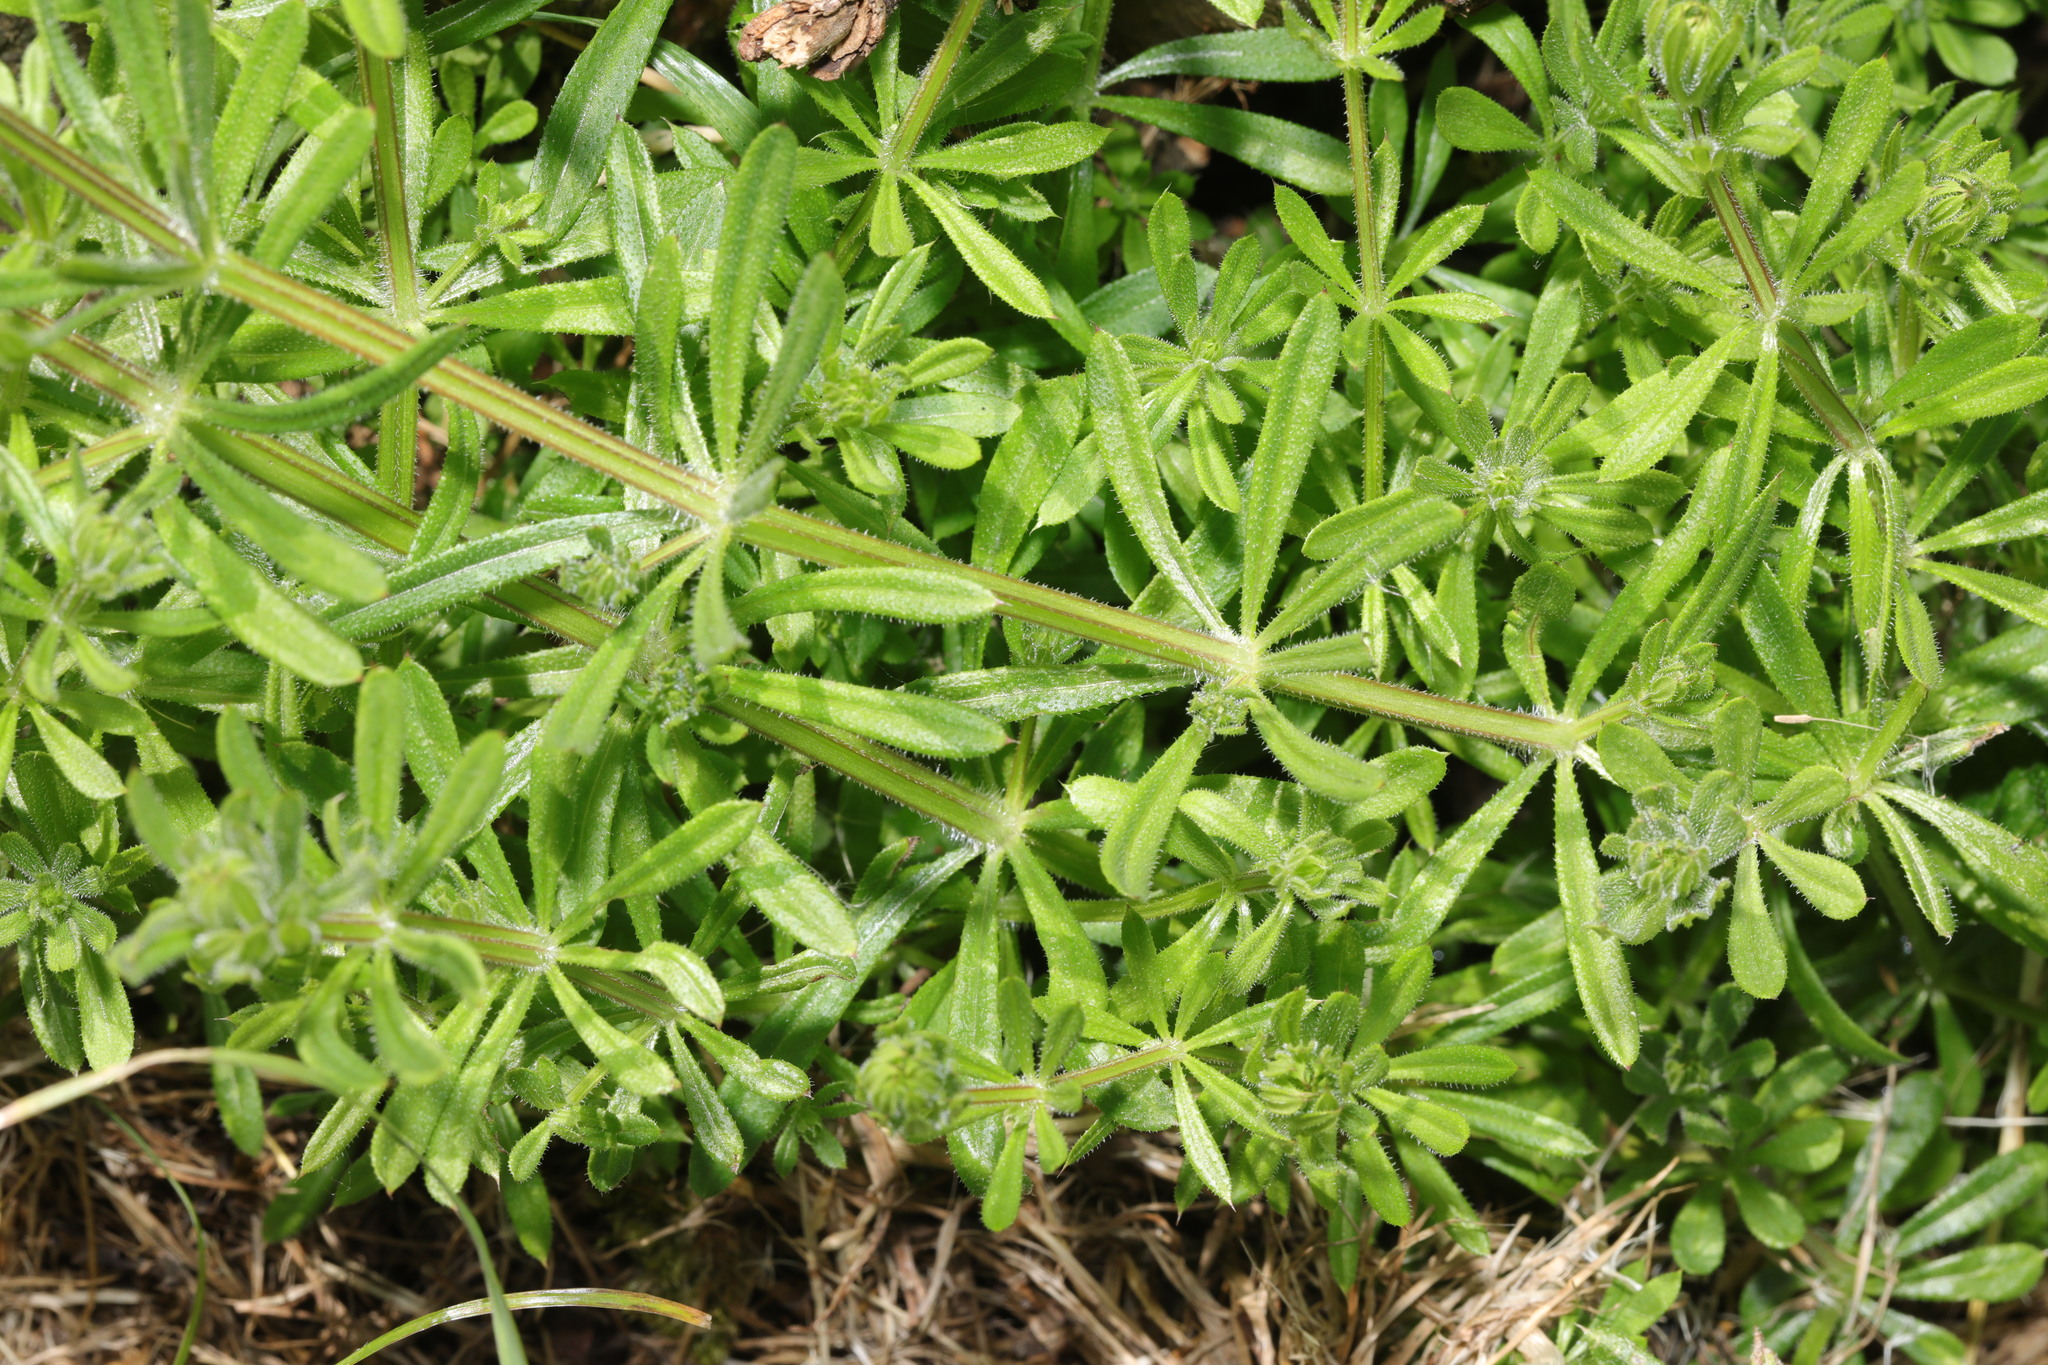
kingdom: Plantae
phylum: Tracheophyta
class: Magnoliopsida
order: Gentianales
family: Rubiaceae
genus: Galium
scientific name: Galium aparine
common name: Cleavers
